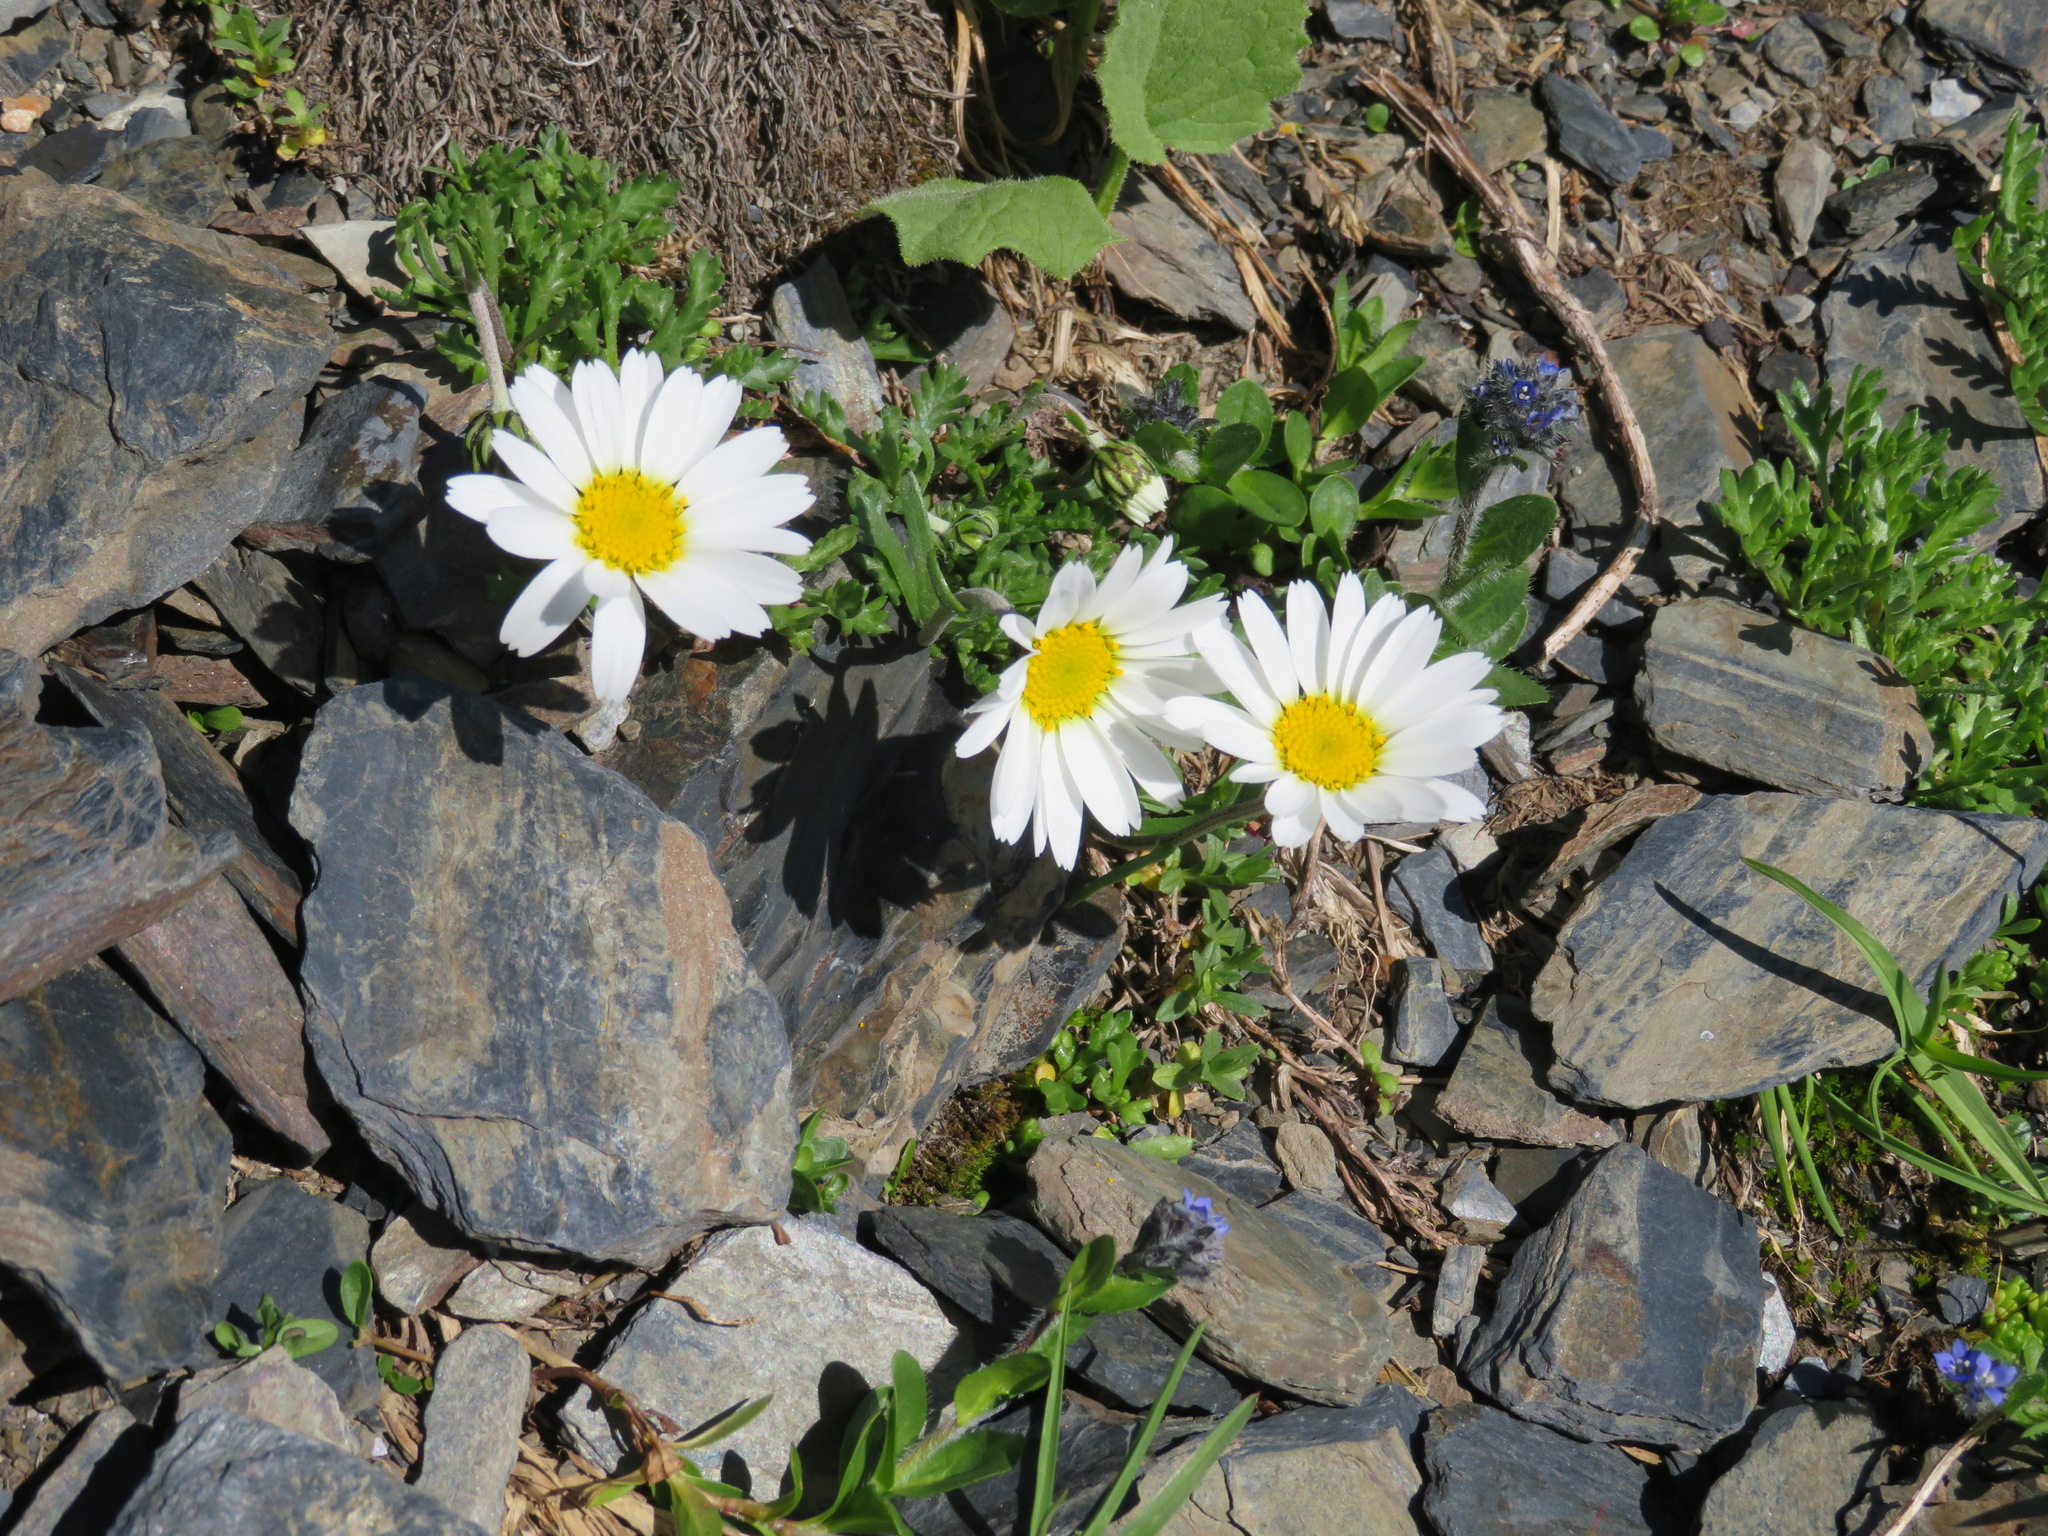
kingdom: Plantae
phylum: Tracheophyta
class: Magnoliopsida
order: Asterales
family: Asteraceae
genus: Leucanthemopsis
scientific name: Leucanthemopsis alpina
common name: Alpine moon daisy
